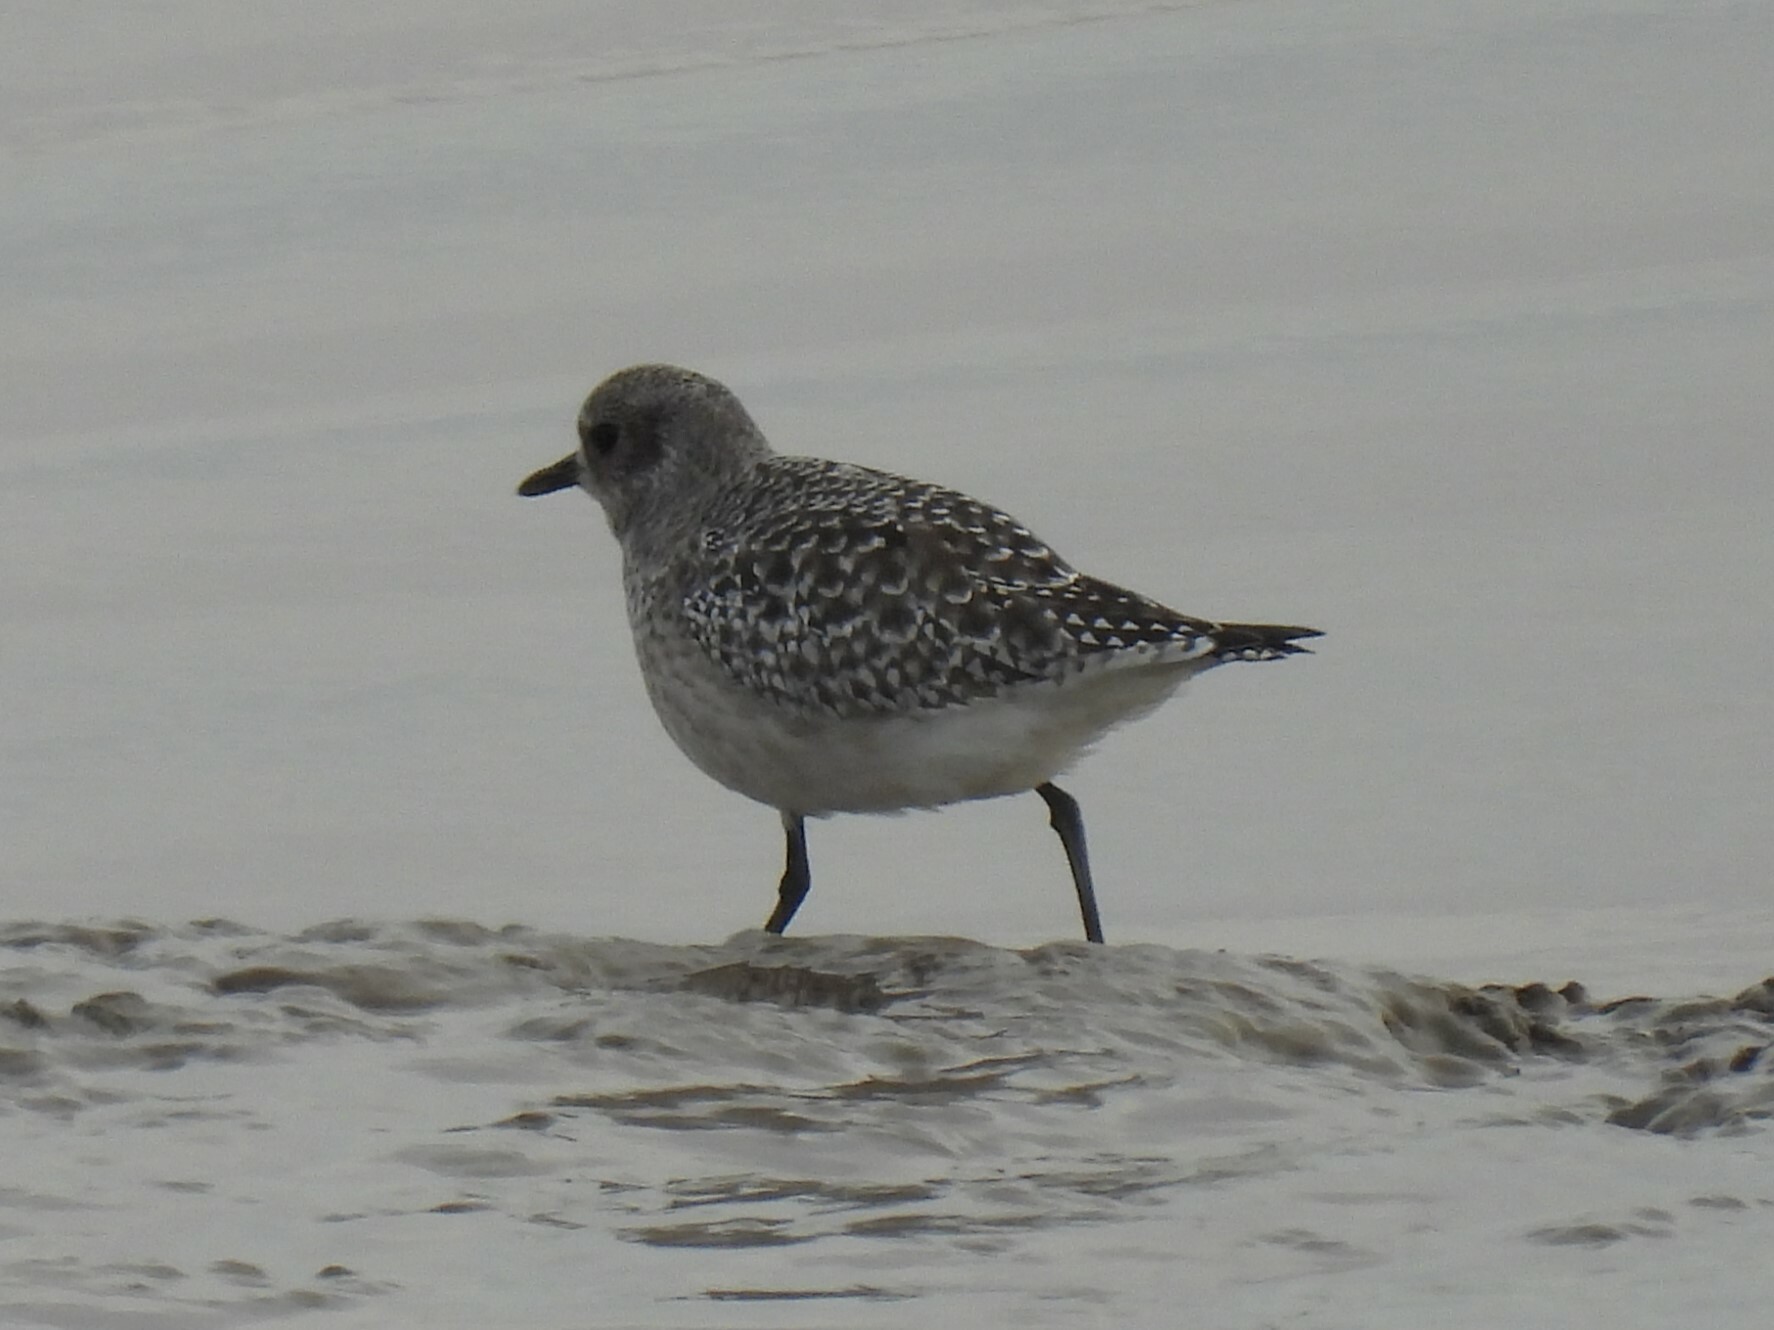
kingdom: Animalia
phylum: Chordata
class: Aves
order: Charadriiformes
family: Charadriidae
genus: Pluvialis
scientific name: Pluvialis squatarola
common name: Grey plover
